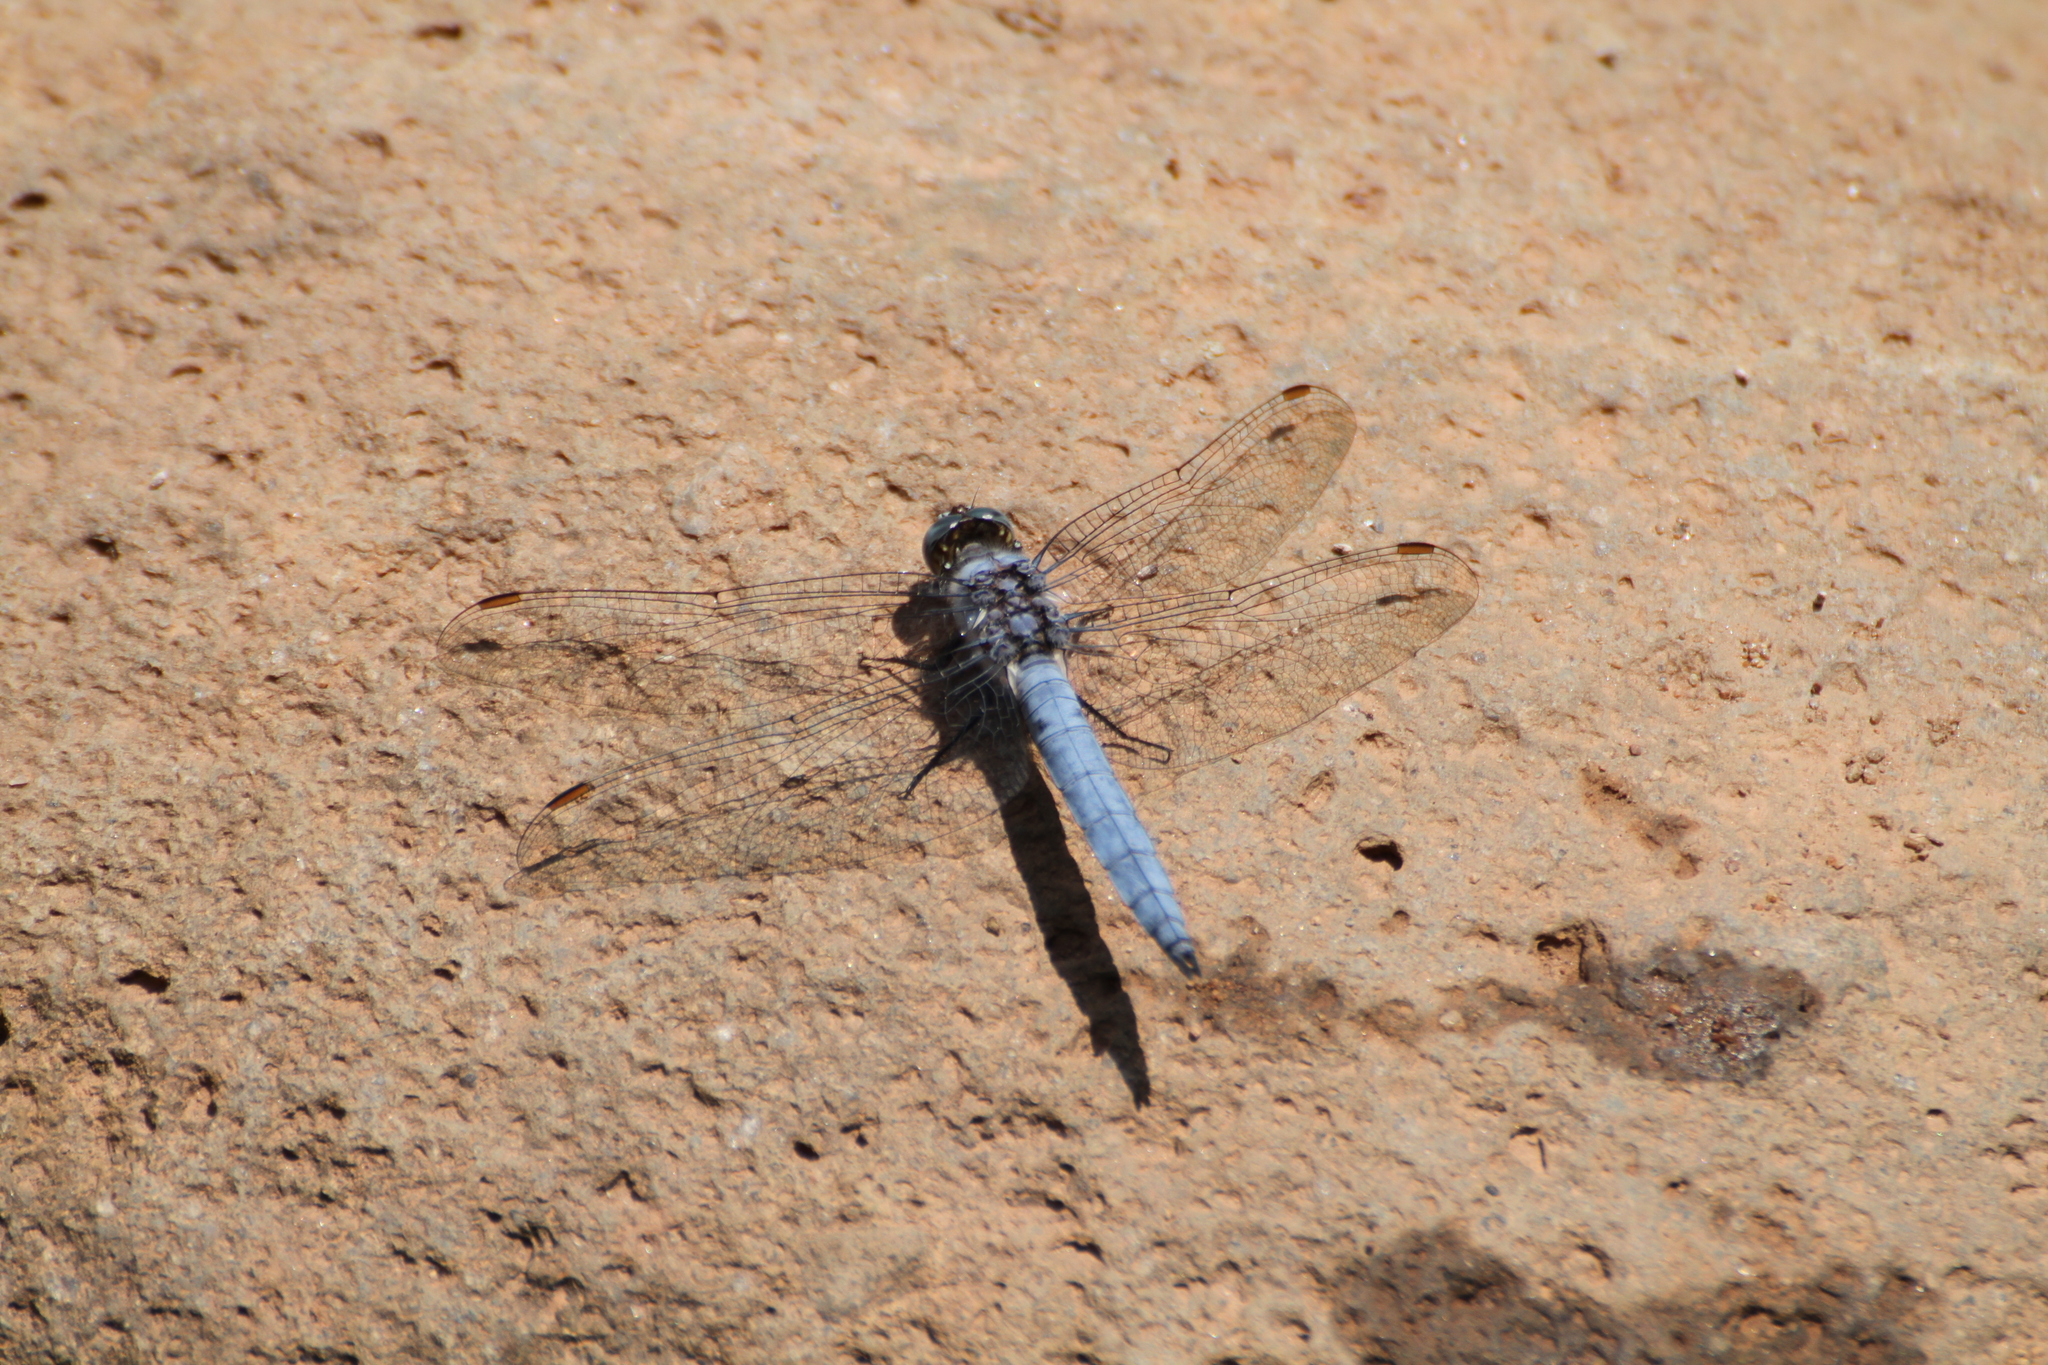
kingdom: Animalia
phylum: Arthropoda
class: Insecta
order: Odonata
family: Libellulidae
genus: Orthetrum
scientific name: Orthetrum brunneum
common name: Southern skimmer
